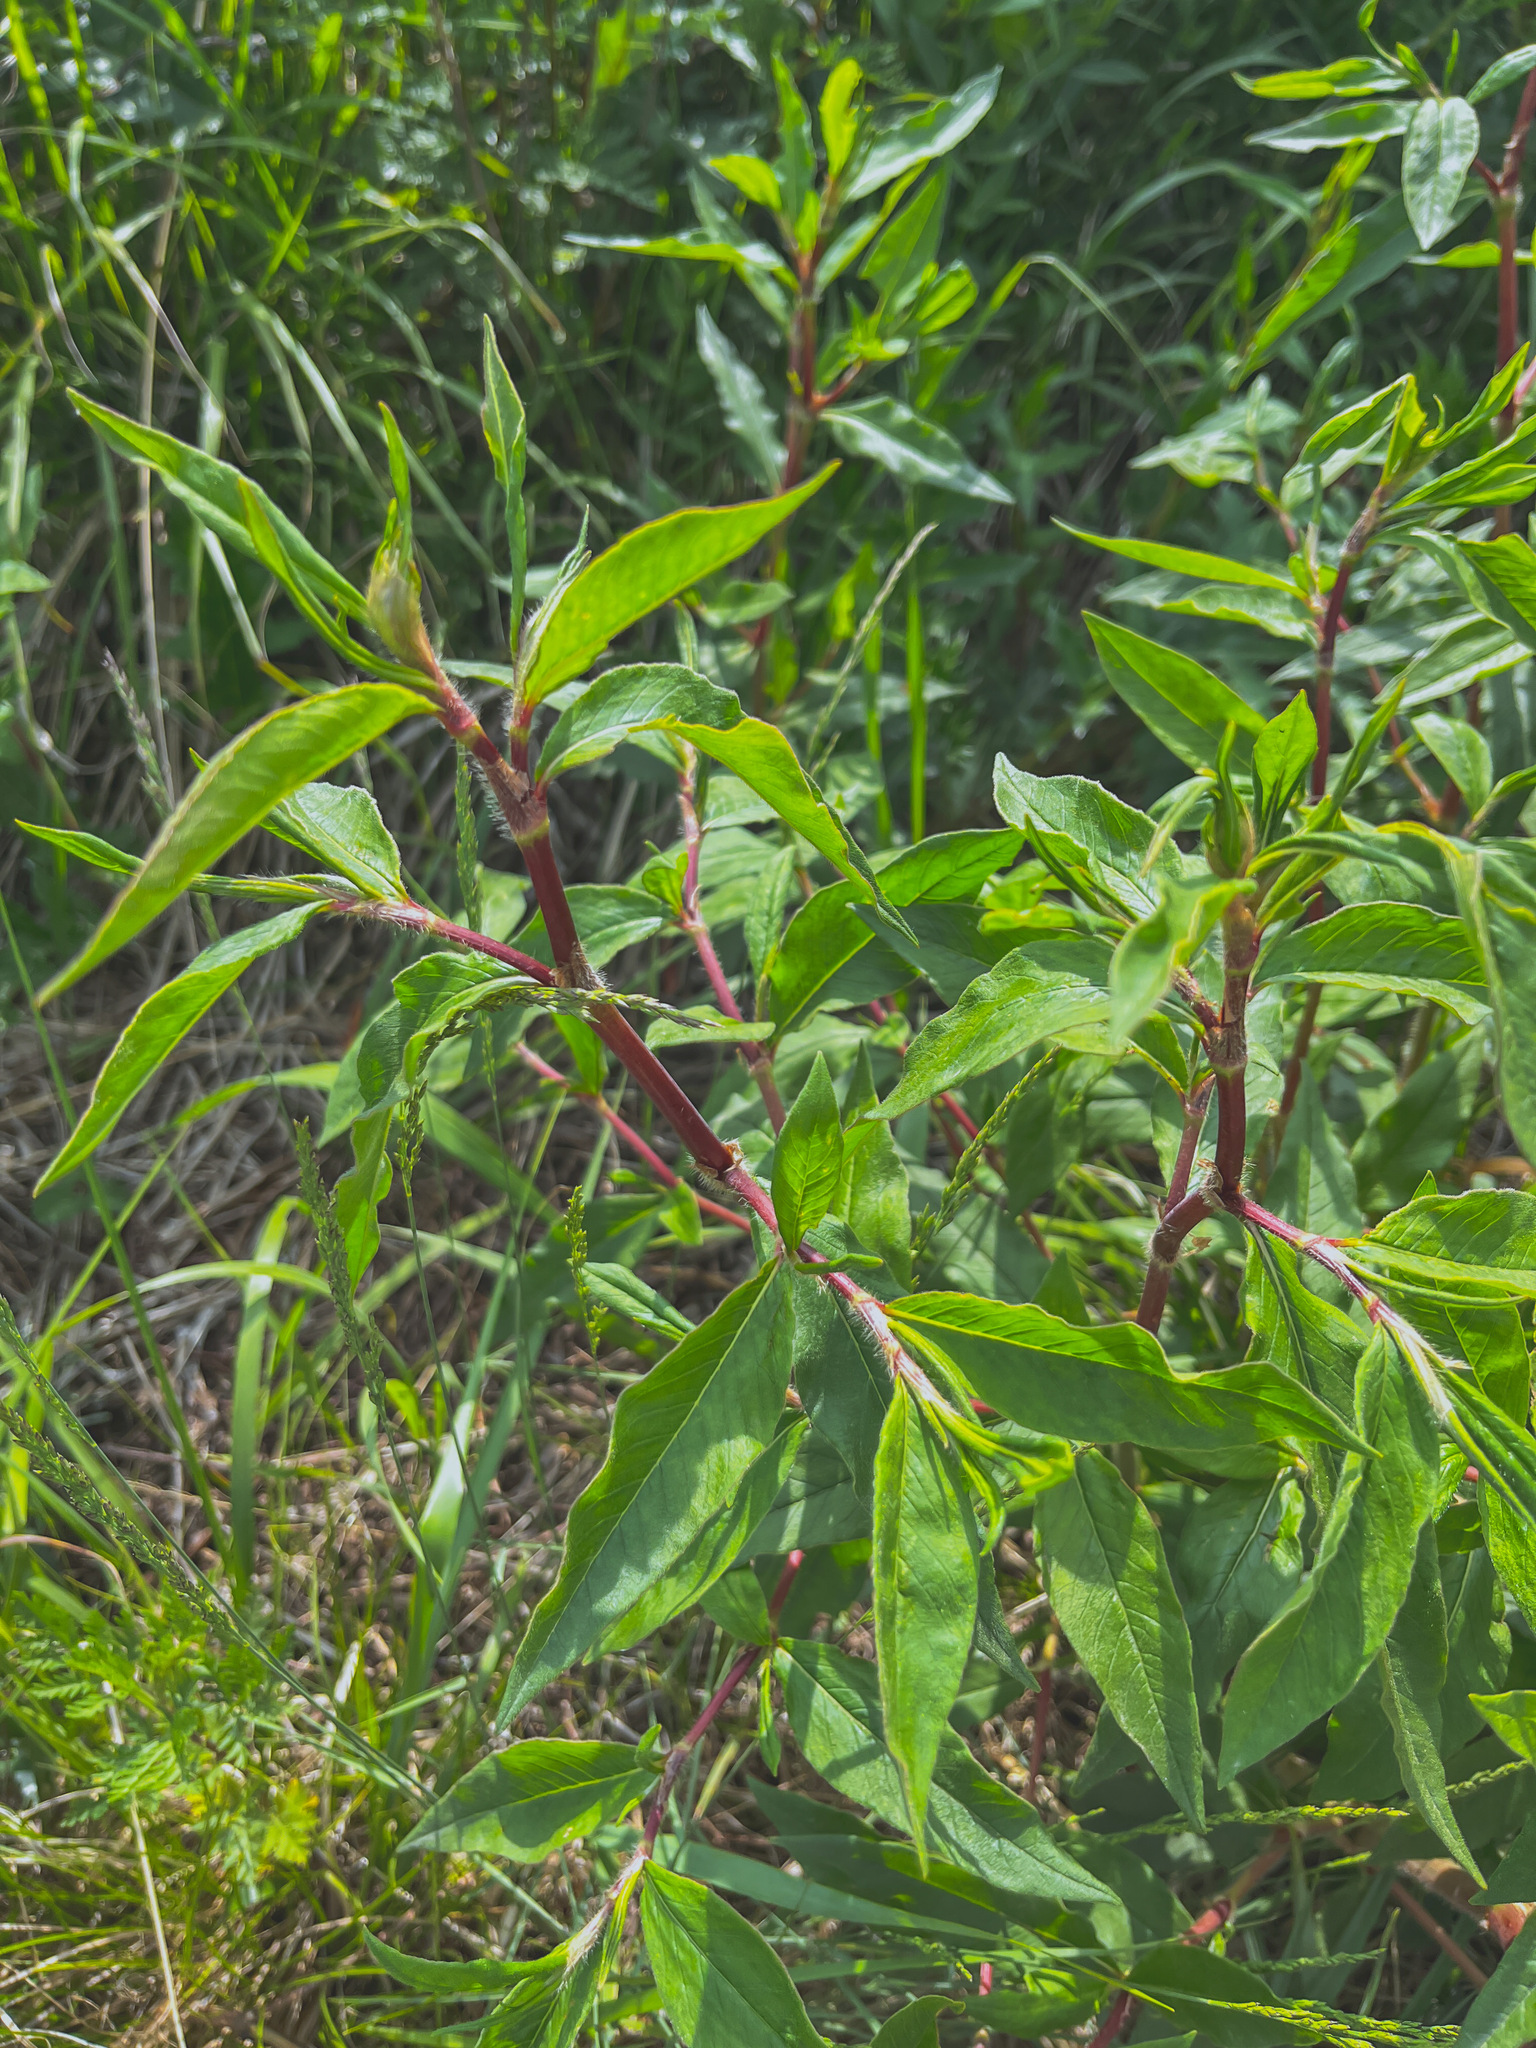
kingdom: Plantae
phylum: Tracheophyta
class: Magnoliopsida
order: Rosales
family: Rosaceae
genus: Prunus
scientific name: Prunus davidiana
